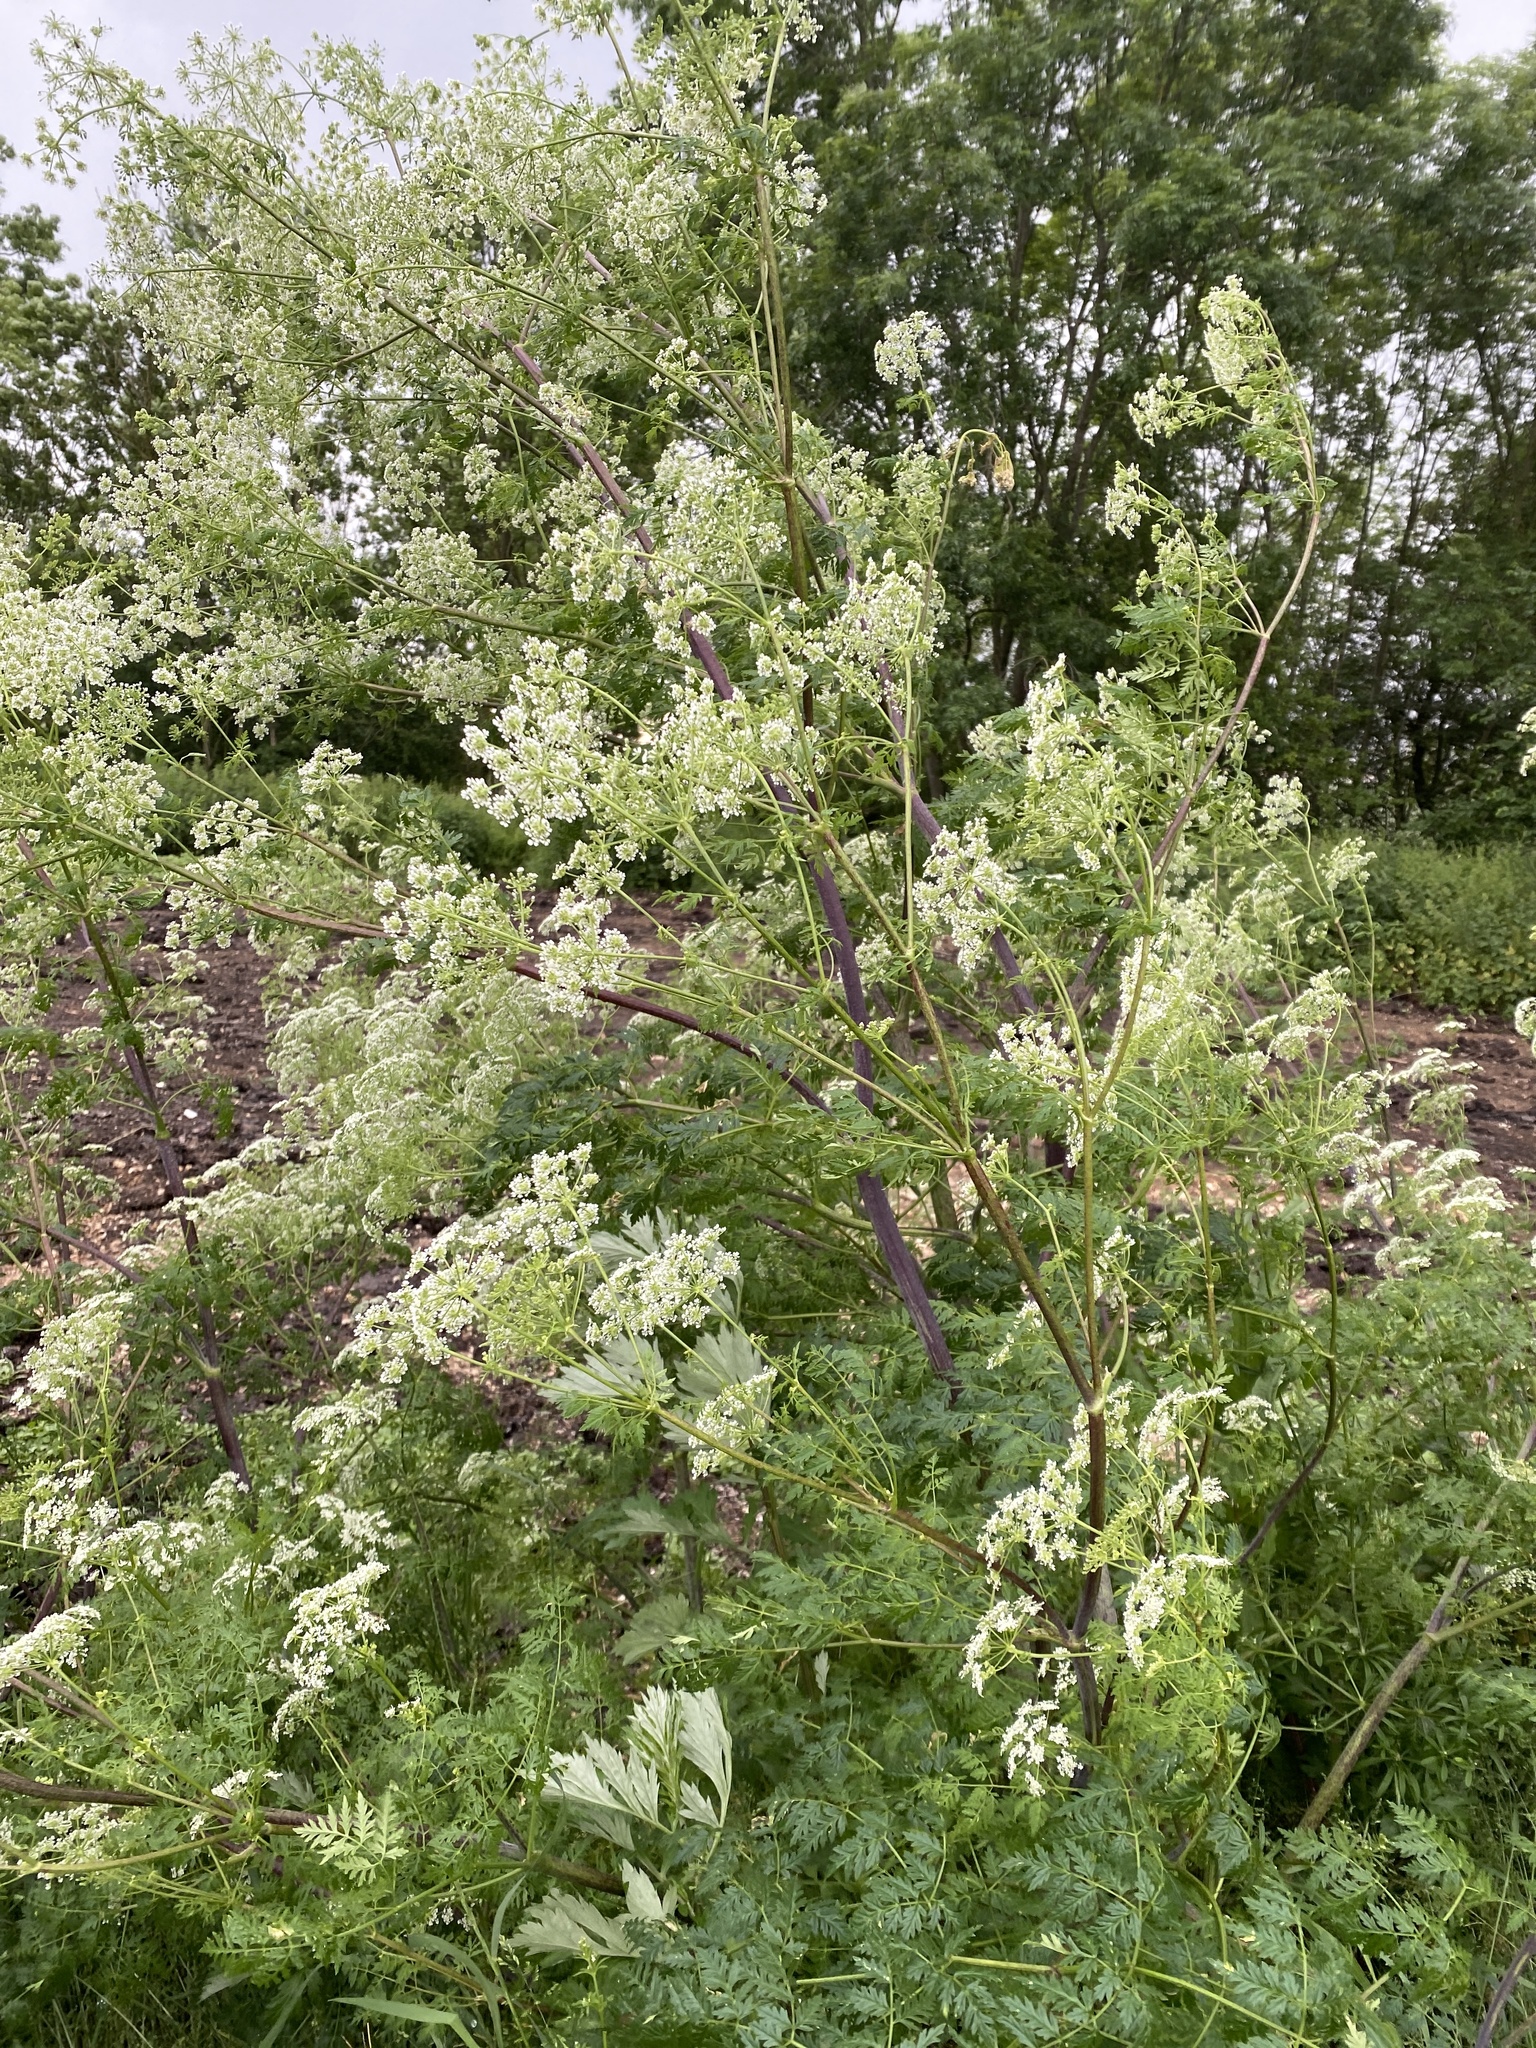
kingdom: Plantae
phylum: Tracheophyta
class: Magnoliopsida
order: Apiales
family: Apiaceae
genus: Conium
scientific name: Conium maculatum
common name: Hemlock
